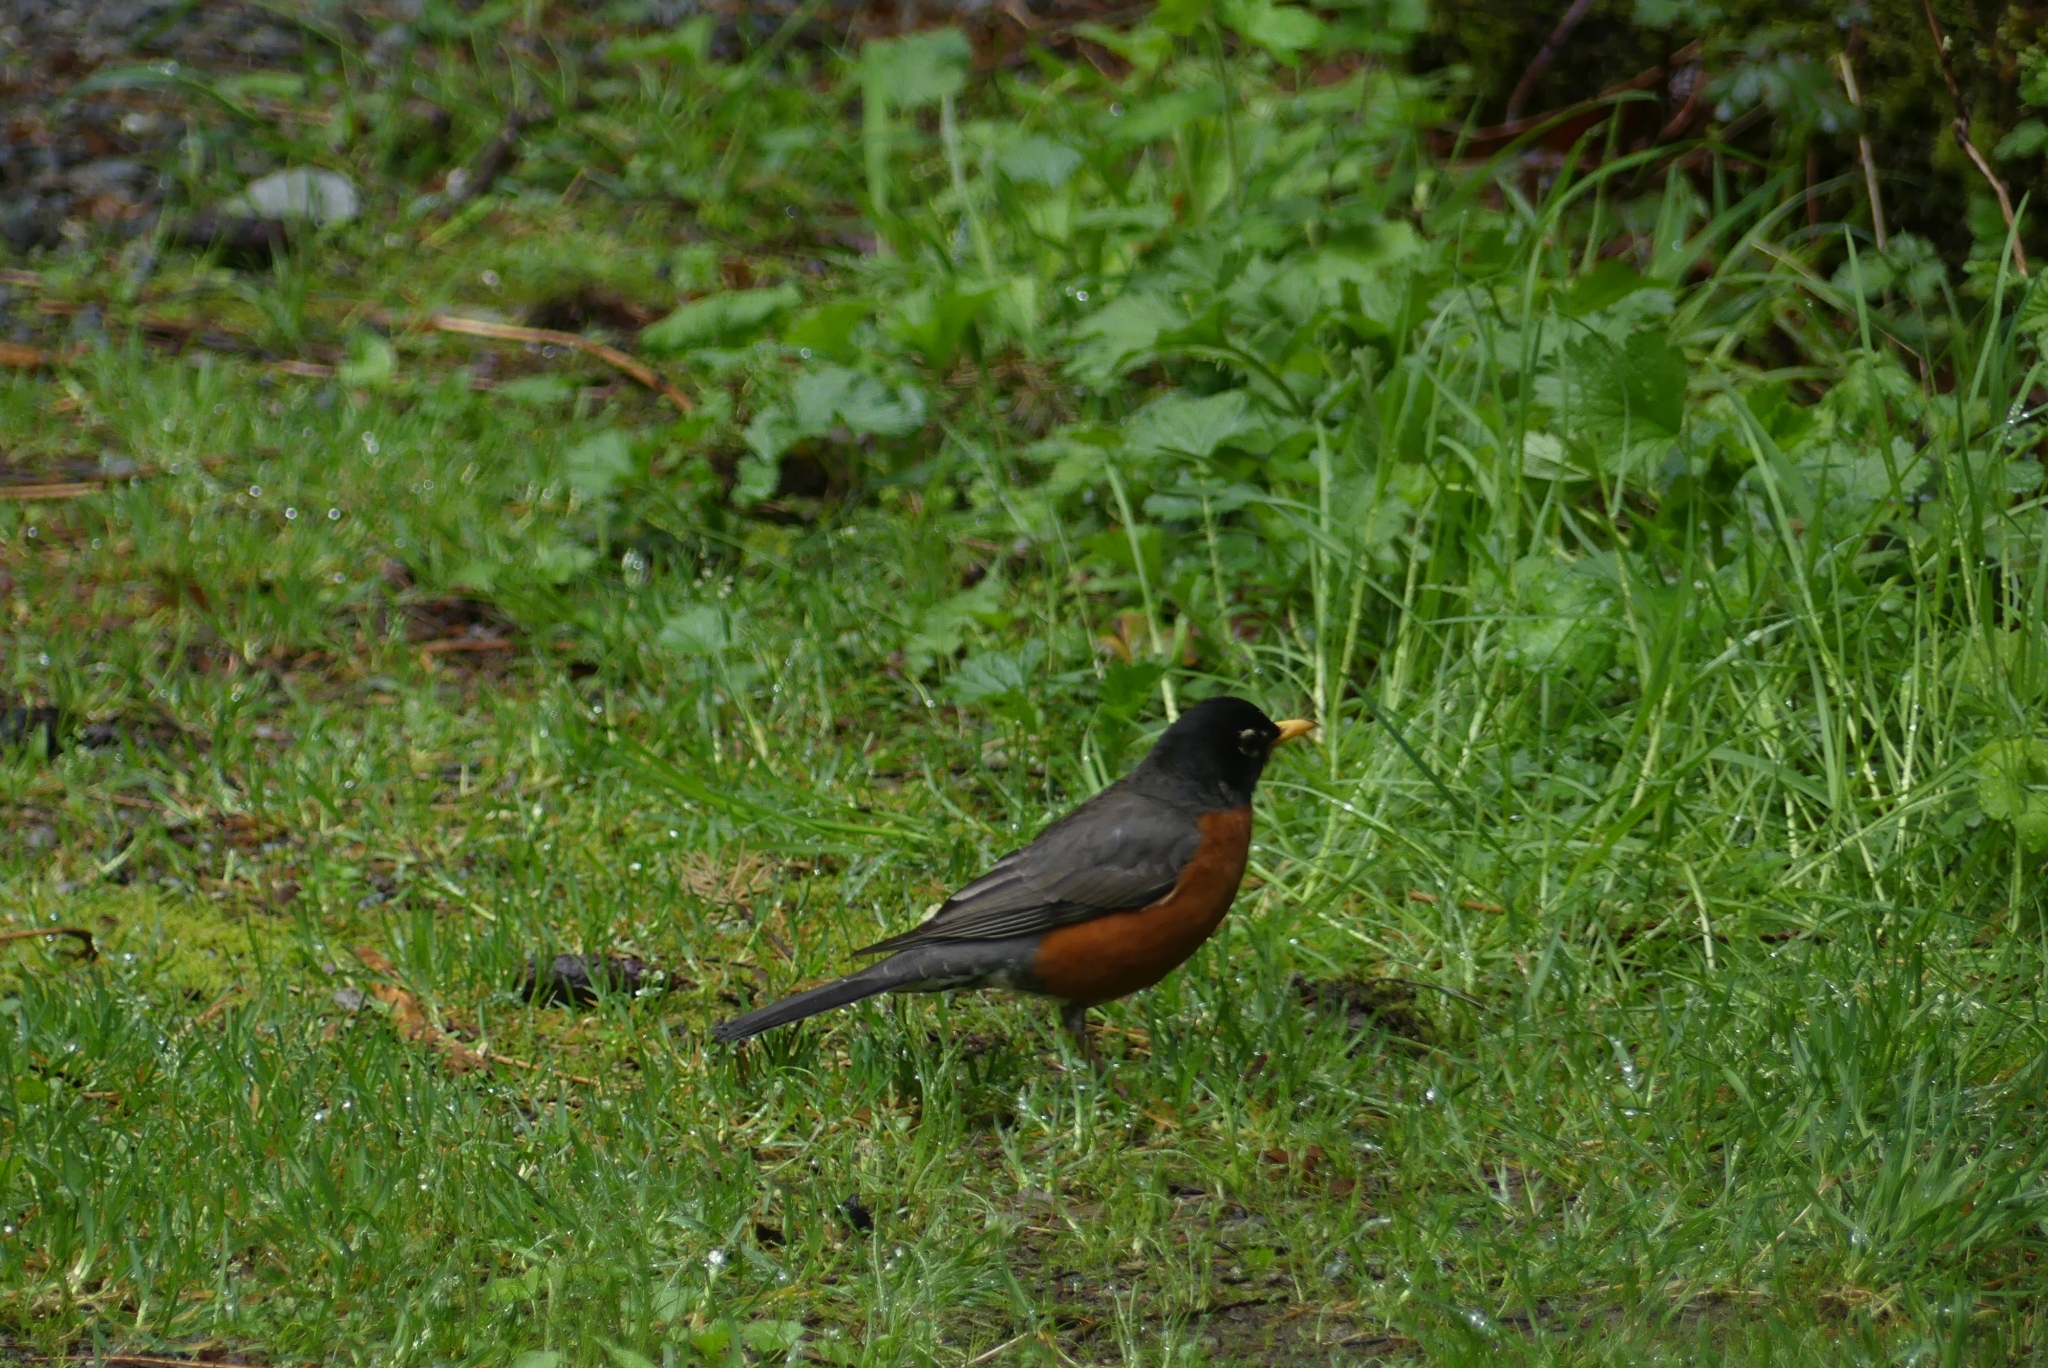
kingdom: Animalia
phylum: Chordata
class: Aves
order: Passeriformes
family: Turdidae
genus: Turdus
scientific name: Turdus migratorius
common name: American robin
